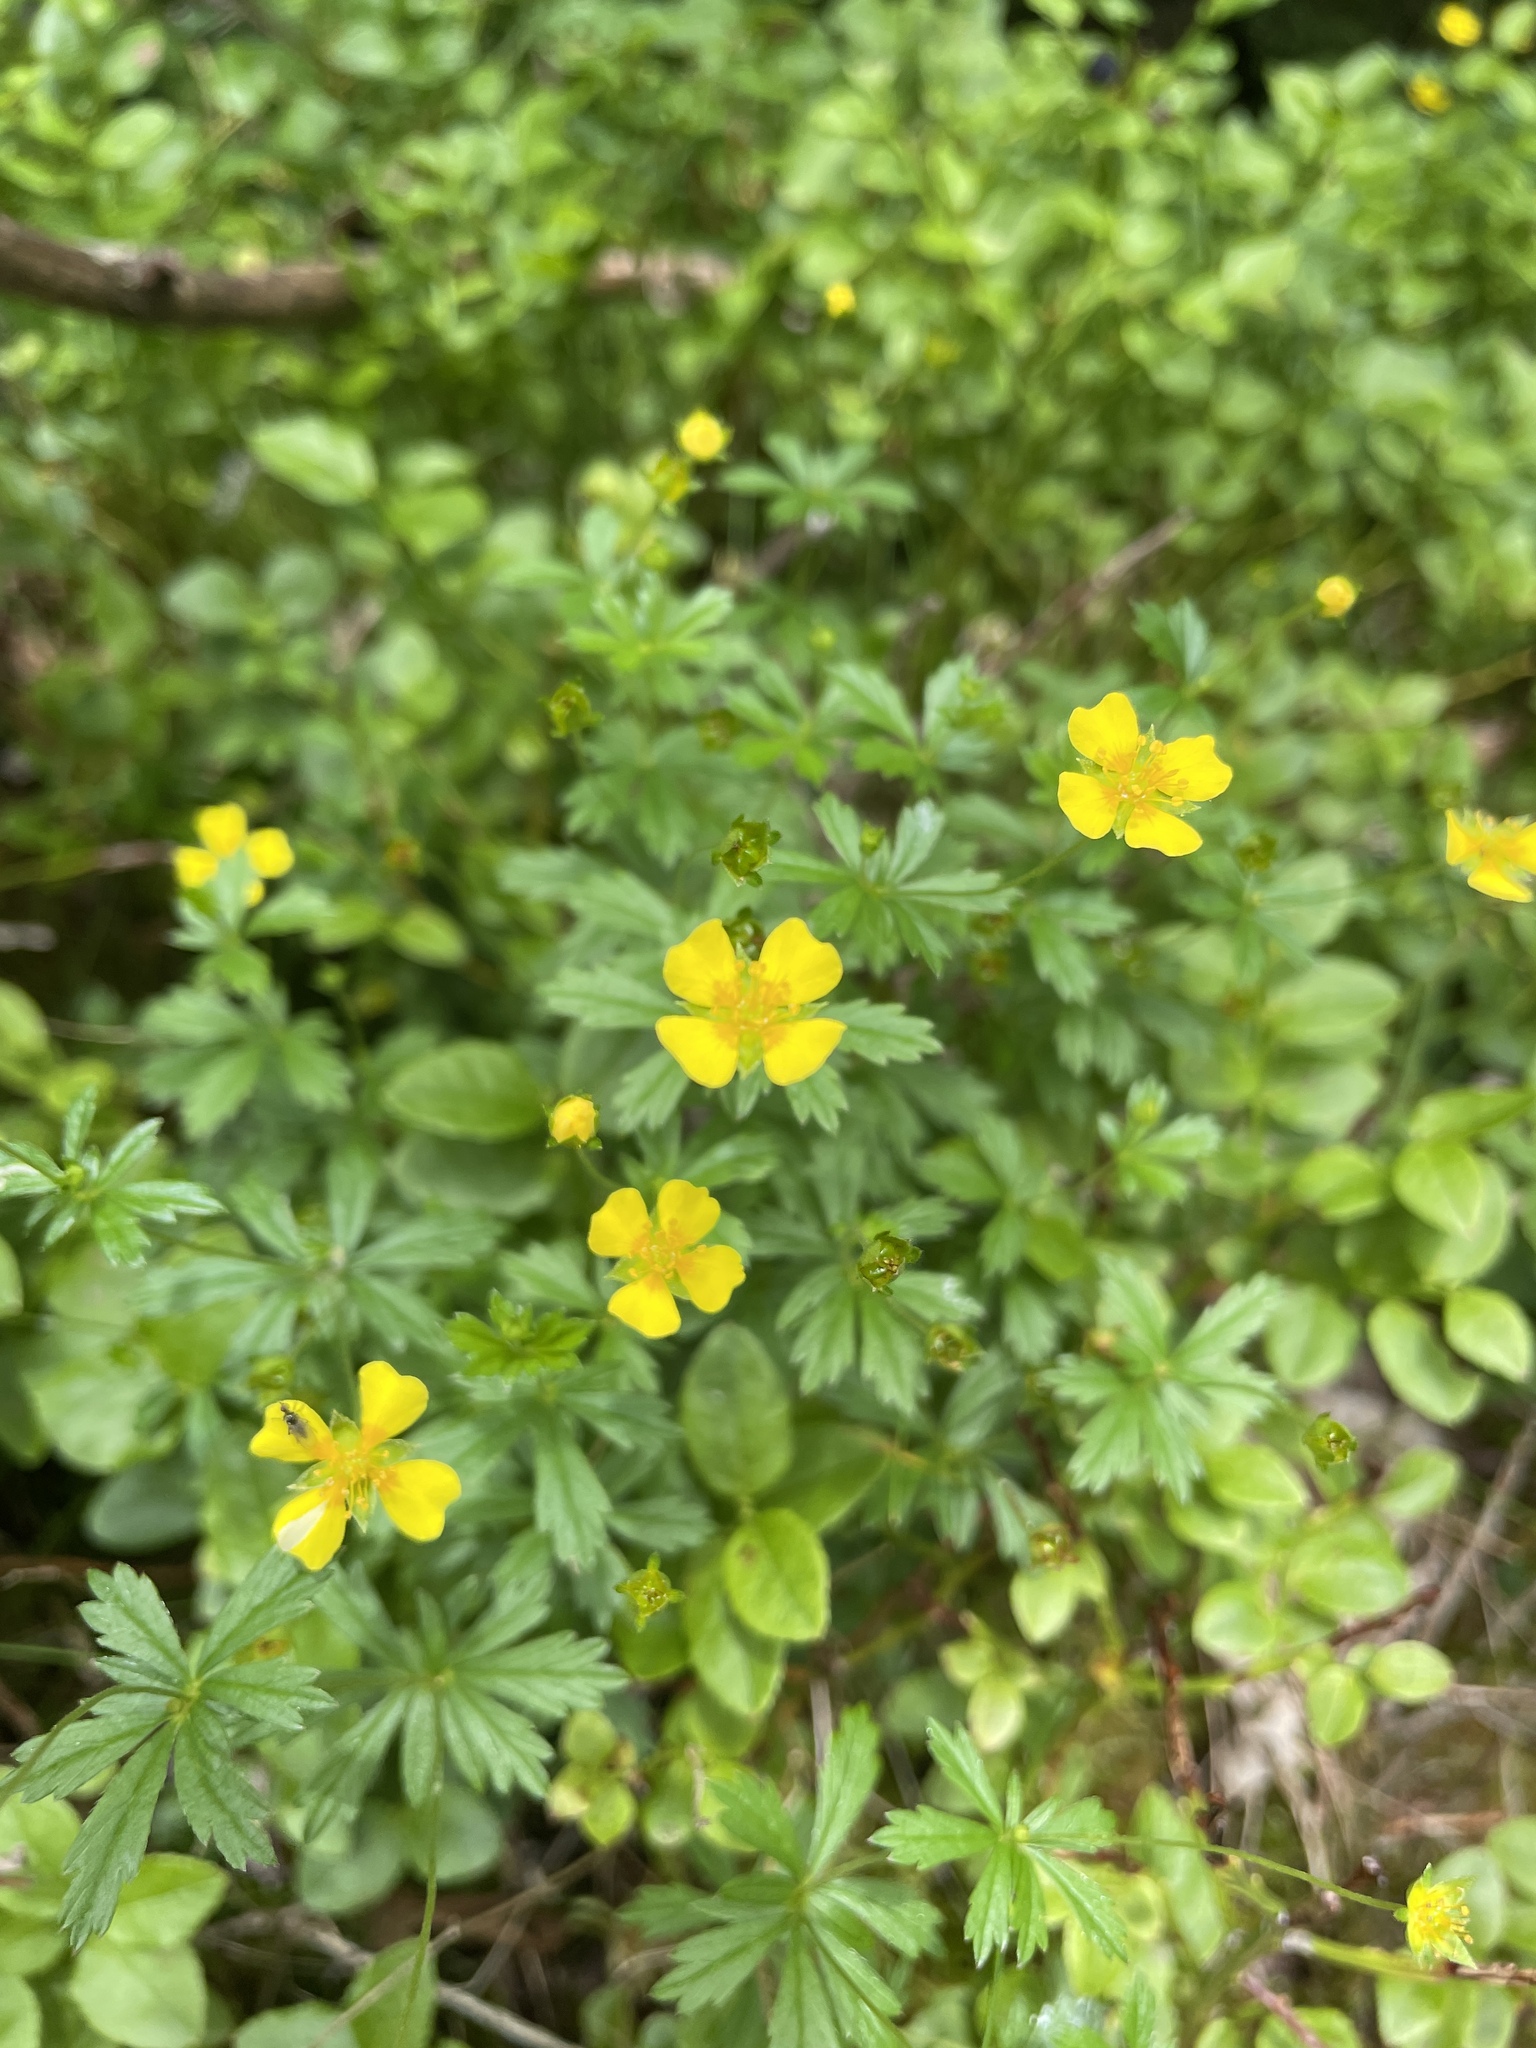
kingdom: Plantae
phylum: Tracheophyta
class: Magnoliopsida
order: Rosales
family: Rosaceae
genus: Potentilla
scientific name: Potentilla erecta
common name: Tormentil
